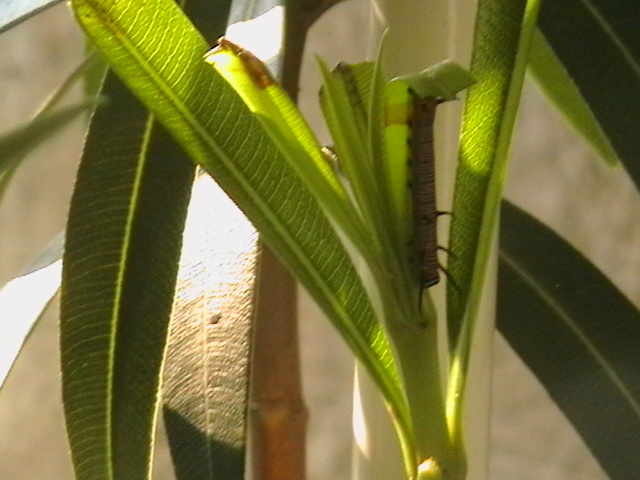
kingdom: Animalia
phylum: Arthropoda
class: Insecta
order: Lepidoptera
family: Nymphalidae
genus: Euploea
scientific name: Euploea core
